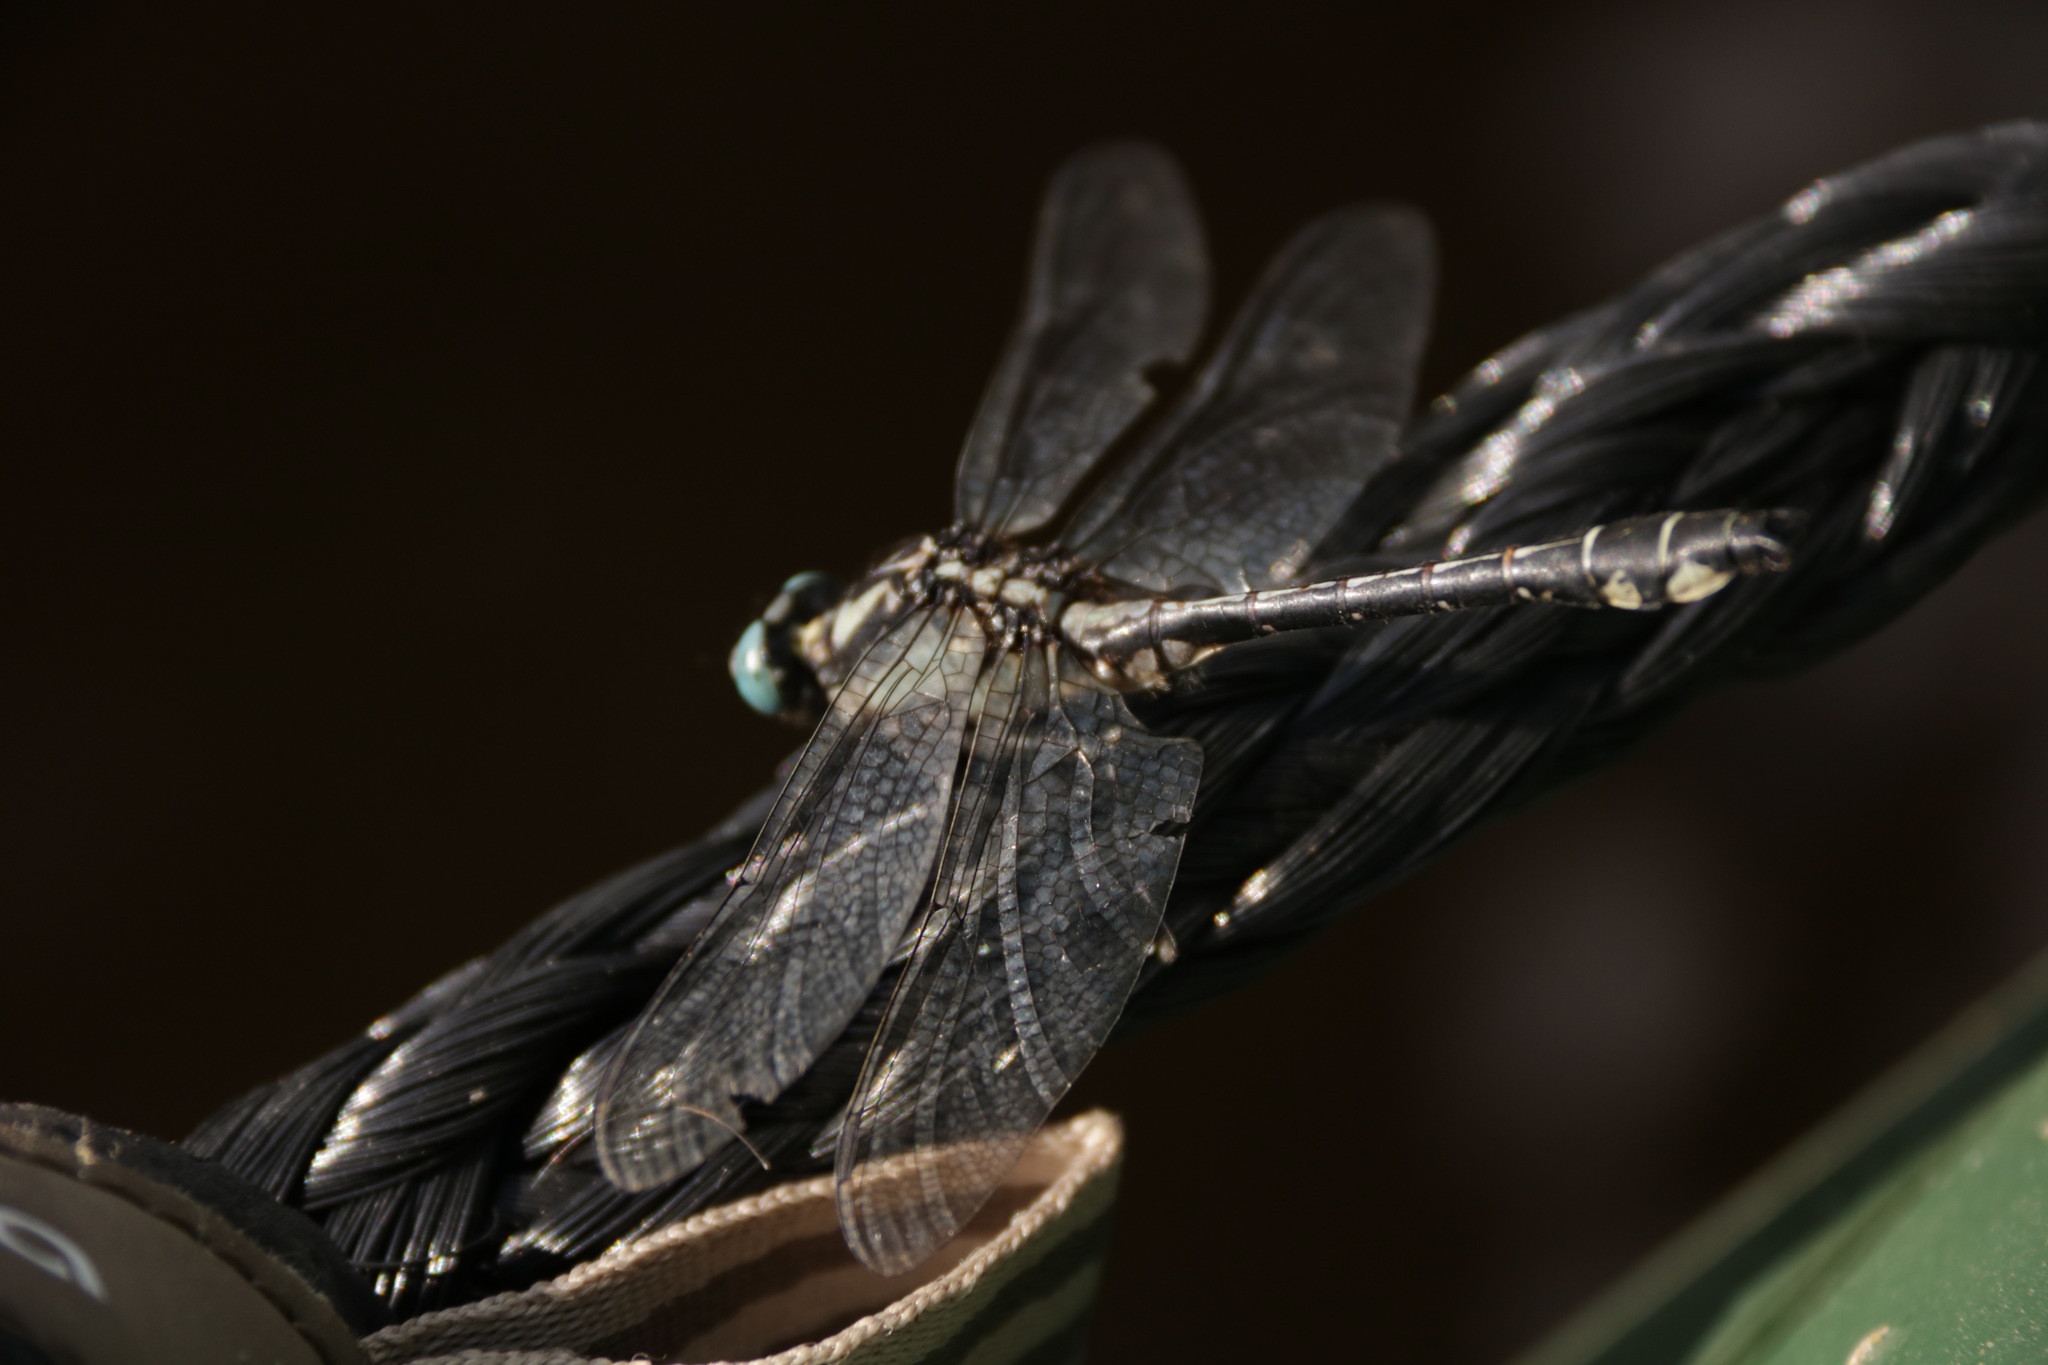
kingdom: Animalia
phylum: Arthropoda
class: Insecta
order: Odonata
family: Gomphidae
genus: Gomphus
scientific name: Gomphus vulgatissimus
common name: Club-tailed dragonfly
